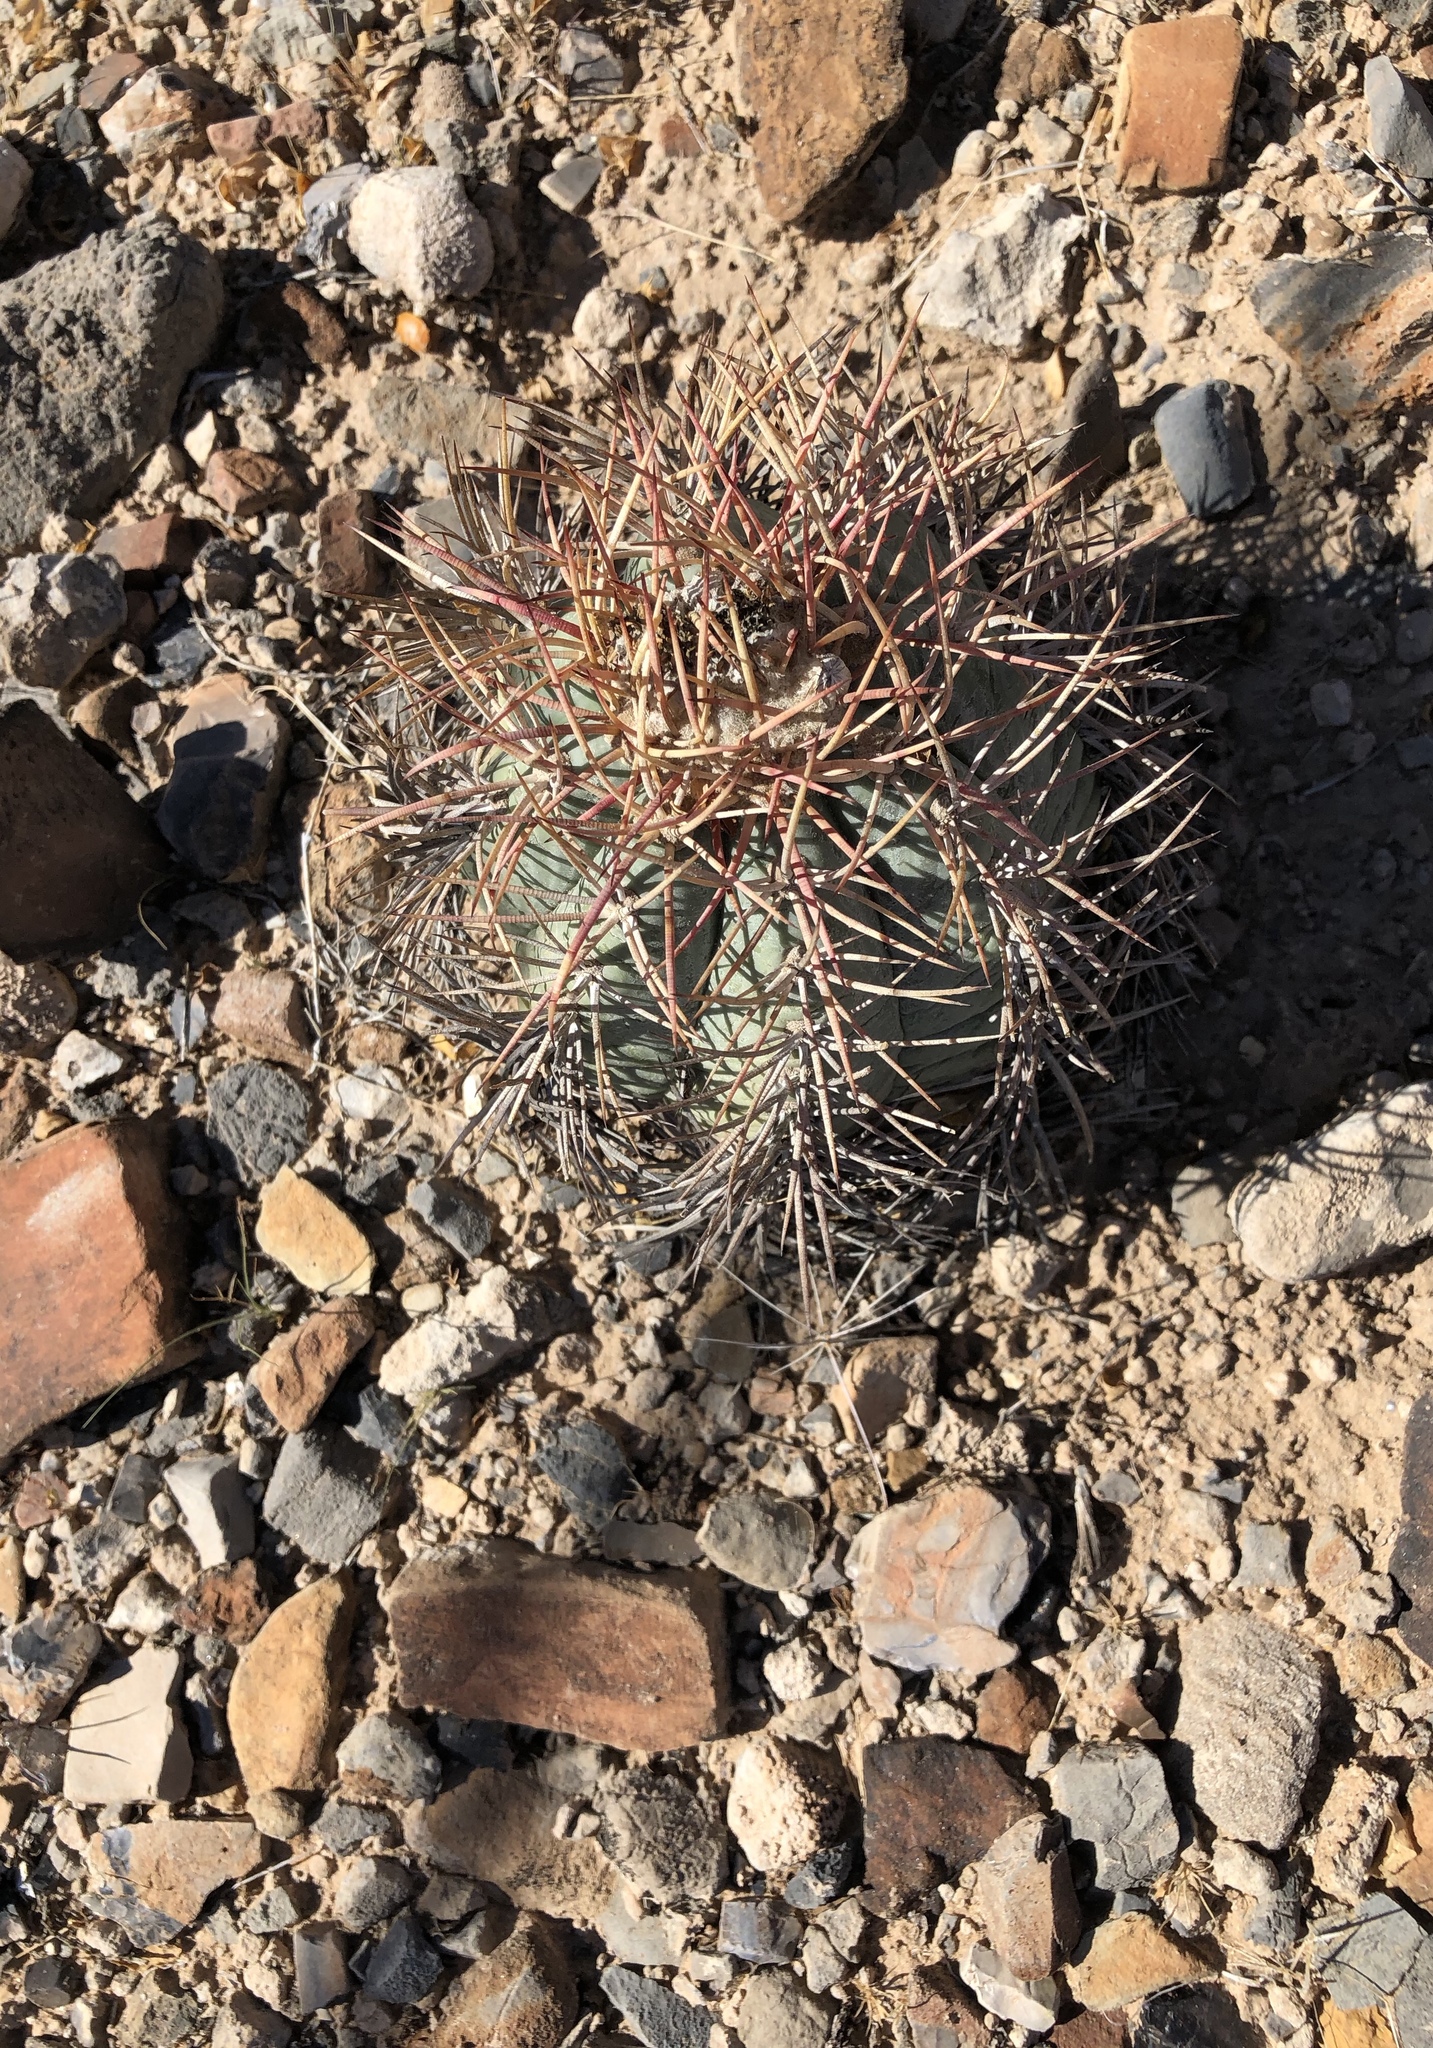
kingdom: Plantae
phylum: Tracheophyta
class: Magnoliopsida
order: Caryophyllales
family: Cactaceae
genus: Echinocactus
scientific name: Echinocactus horizonthalonius
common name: Devilshead
